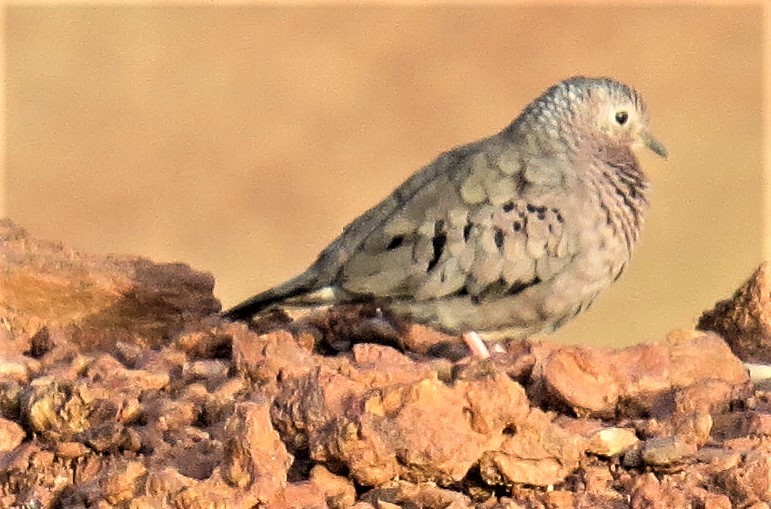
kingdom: Animalia
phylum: Chordata
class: Aves
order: Columbiformes
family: Columbidae
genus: Columbina
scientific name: Columbina passerina
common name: Common ground-dove
